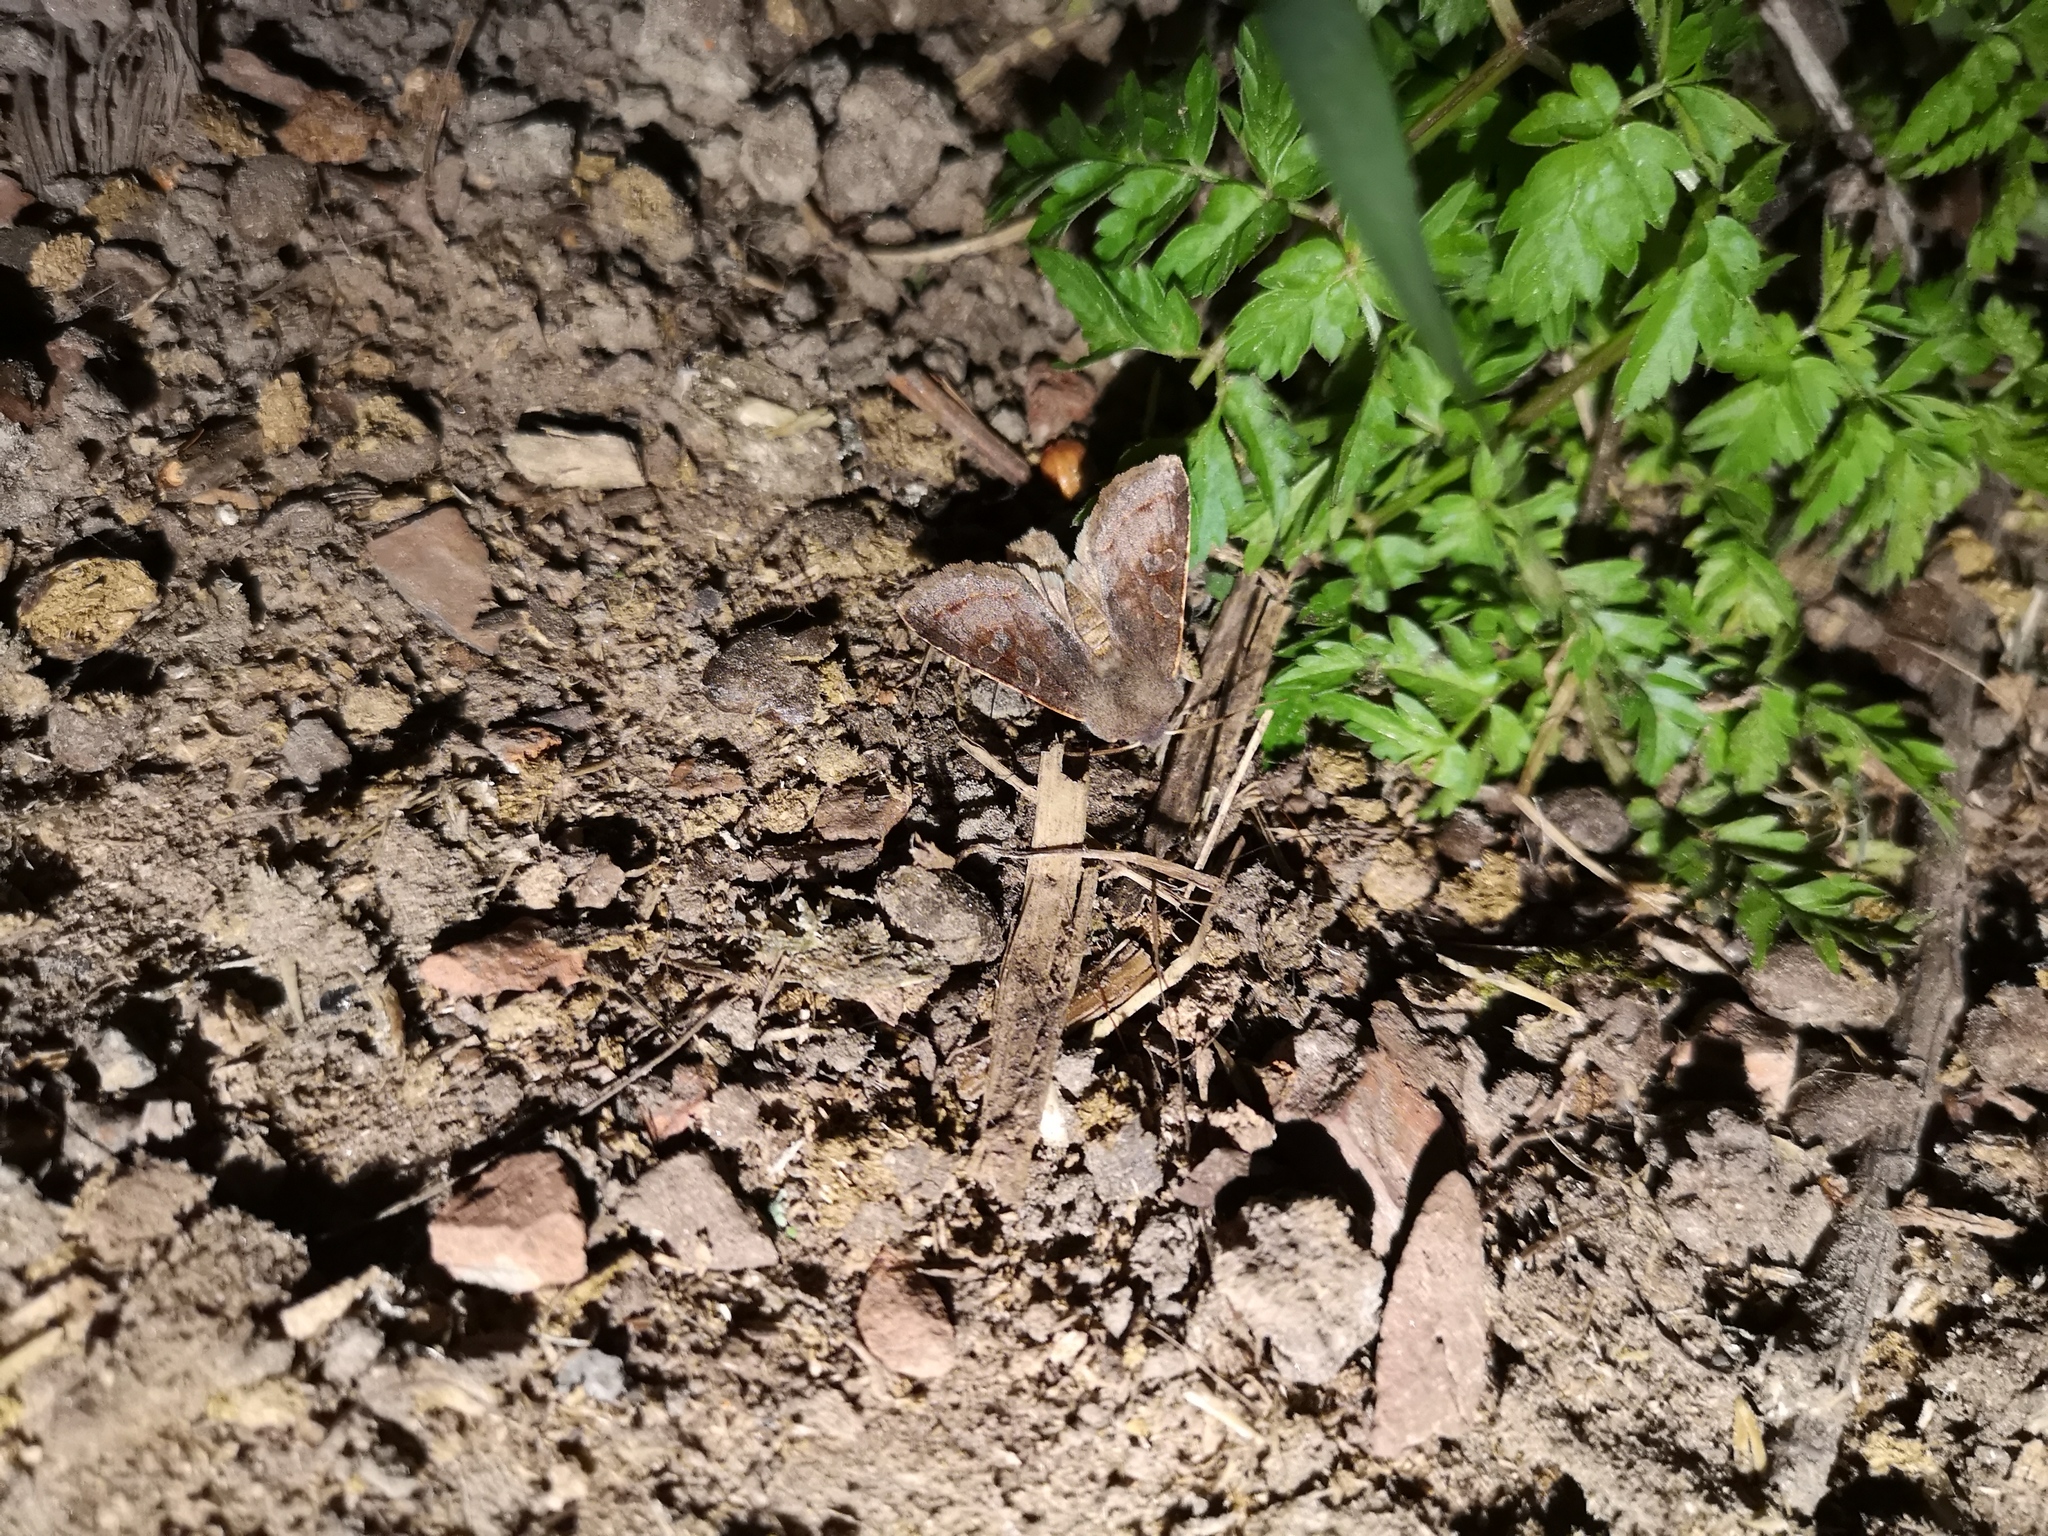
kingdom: Animalia
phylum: Arthropoda
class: Insecta
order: Lepidoptera
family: Noctuidae
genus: Orthosia
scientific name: Orthosia incerta
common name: Clouded drab
